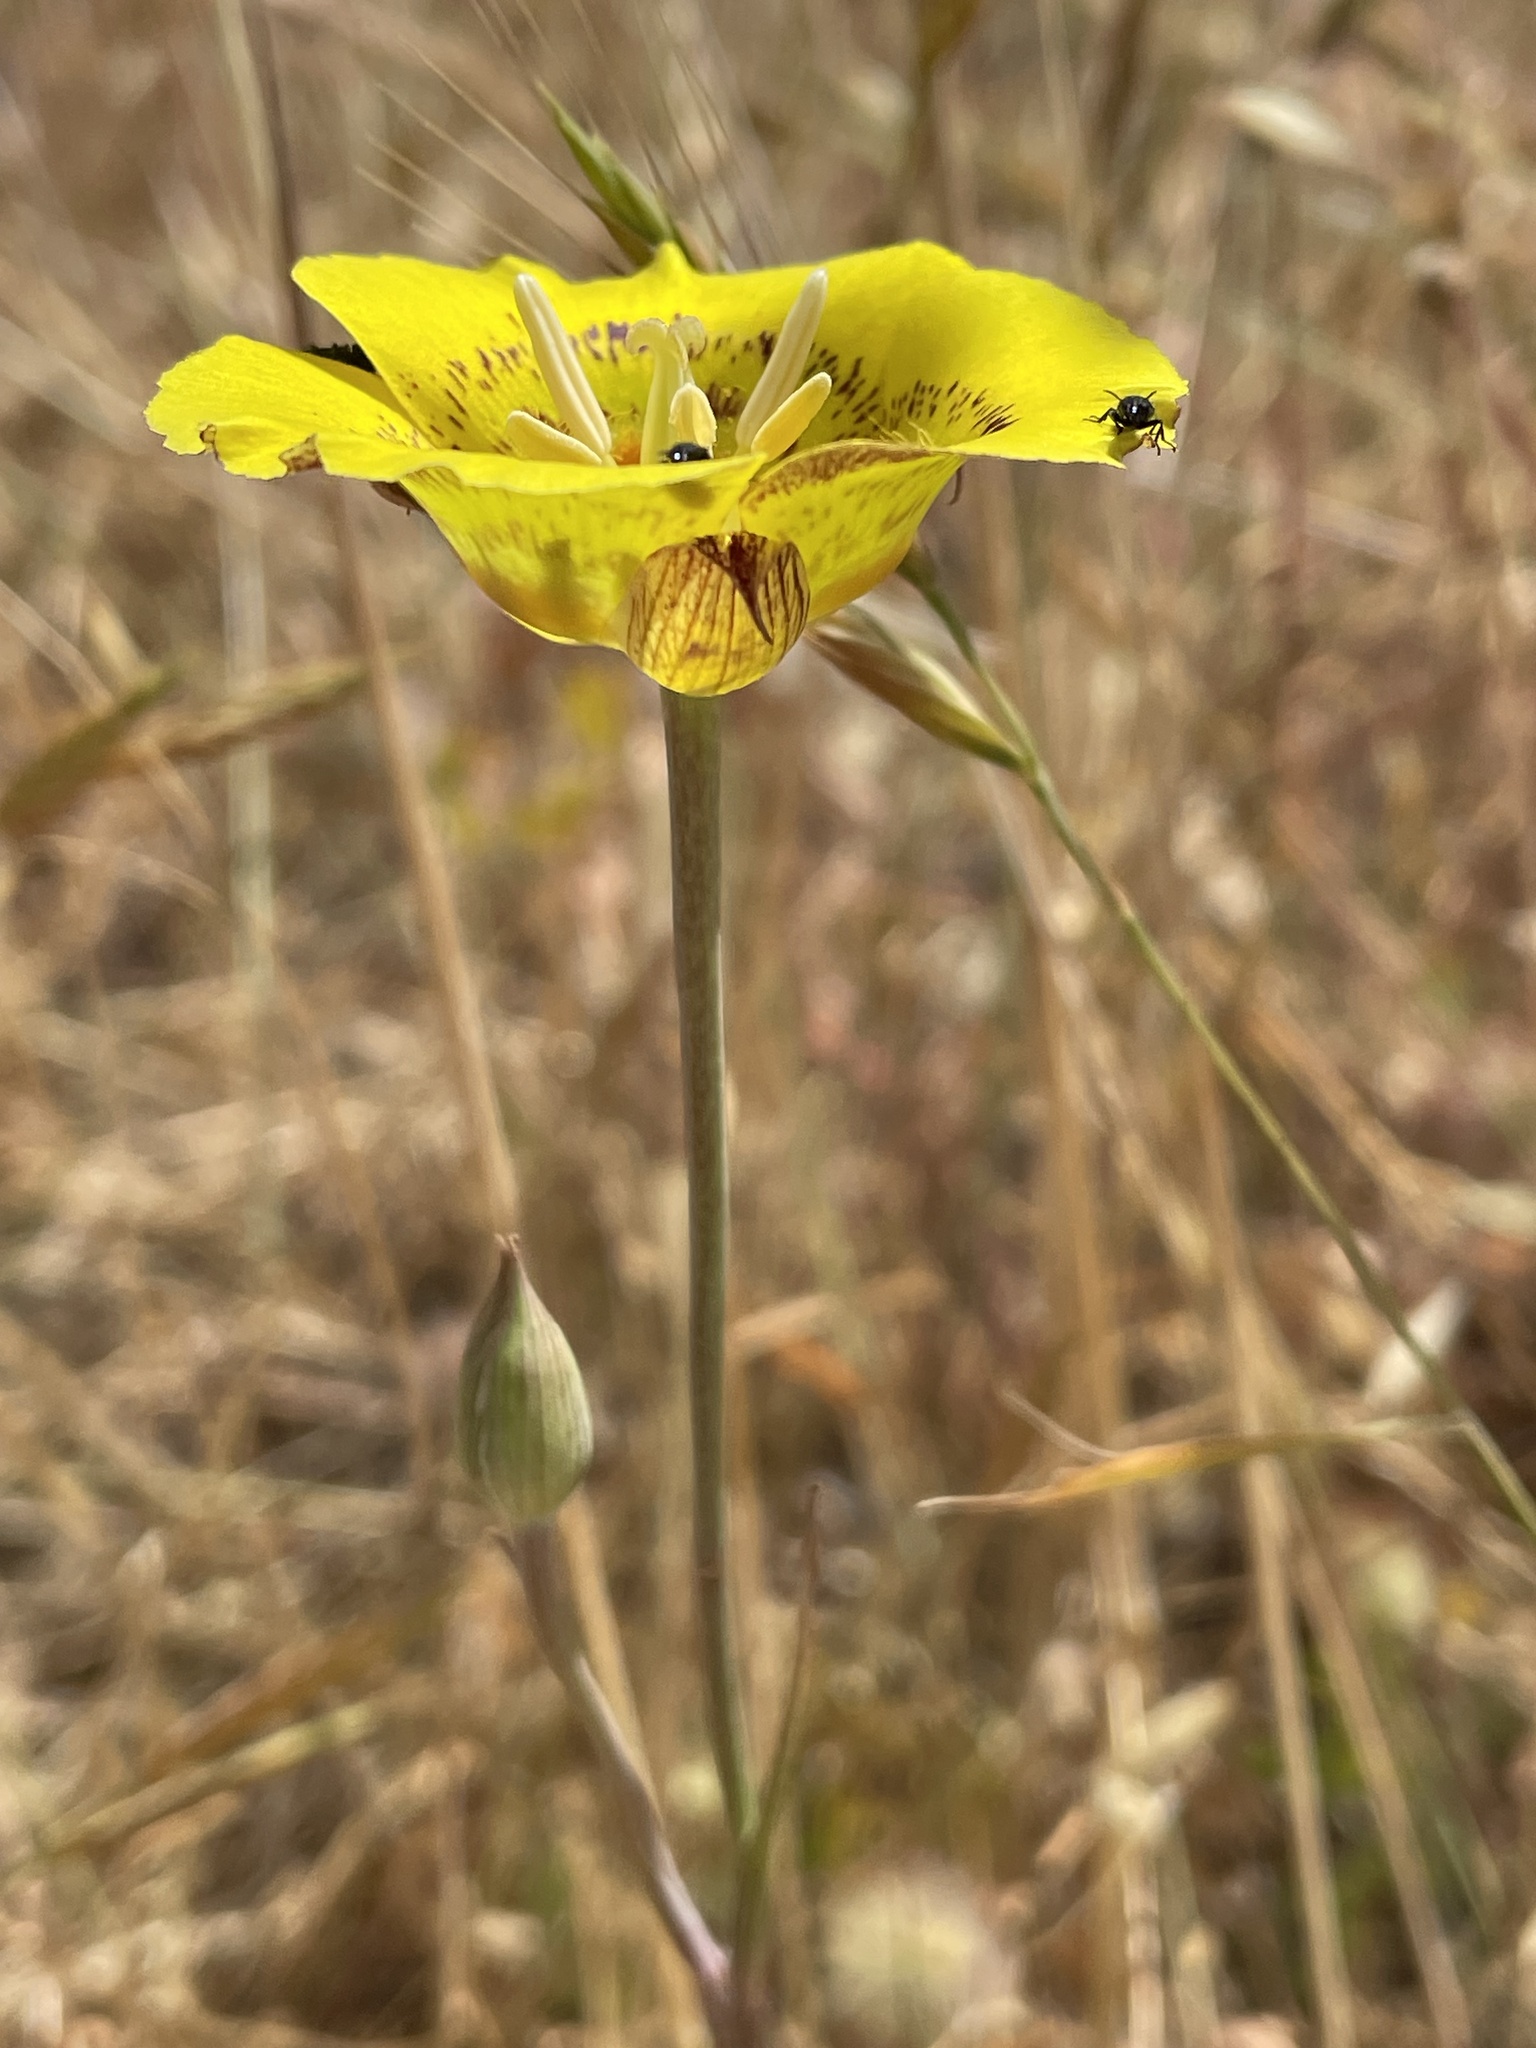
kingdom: Plantae
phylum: Tracheophyta
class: Liliopsida
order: Liliales
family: Liliaceae
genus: Calochortus
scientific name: Calochortus luteus
